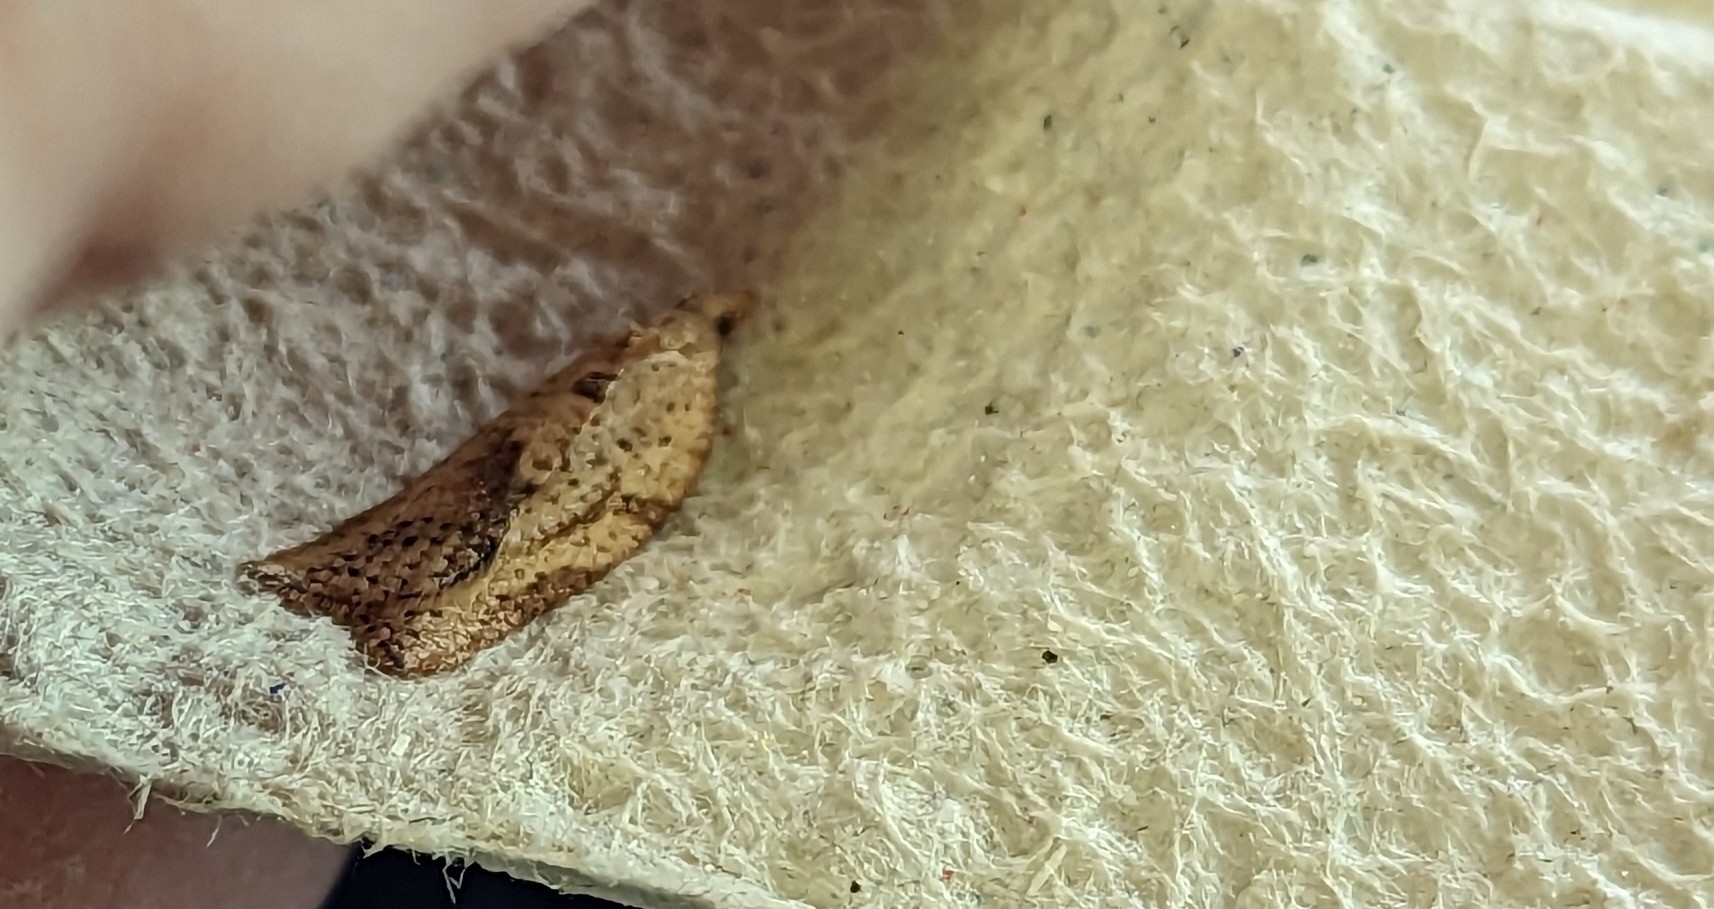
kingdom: Animalia
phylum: Arthropoda
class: Insecta
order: Lepidoptera
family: Tortricidae
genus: Epiphyas
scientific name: Epiphyas postvittana
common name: Light brown apple moth
